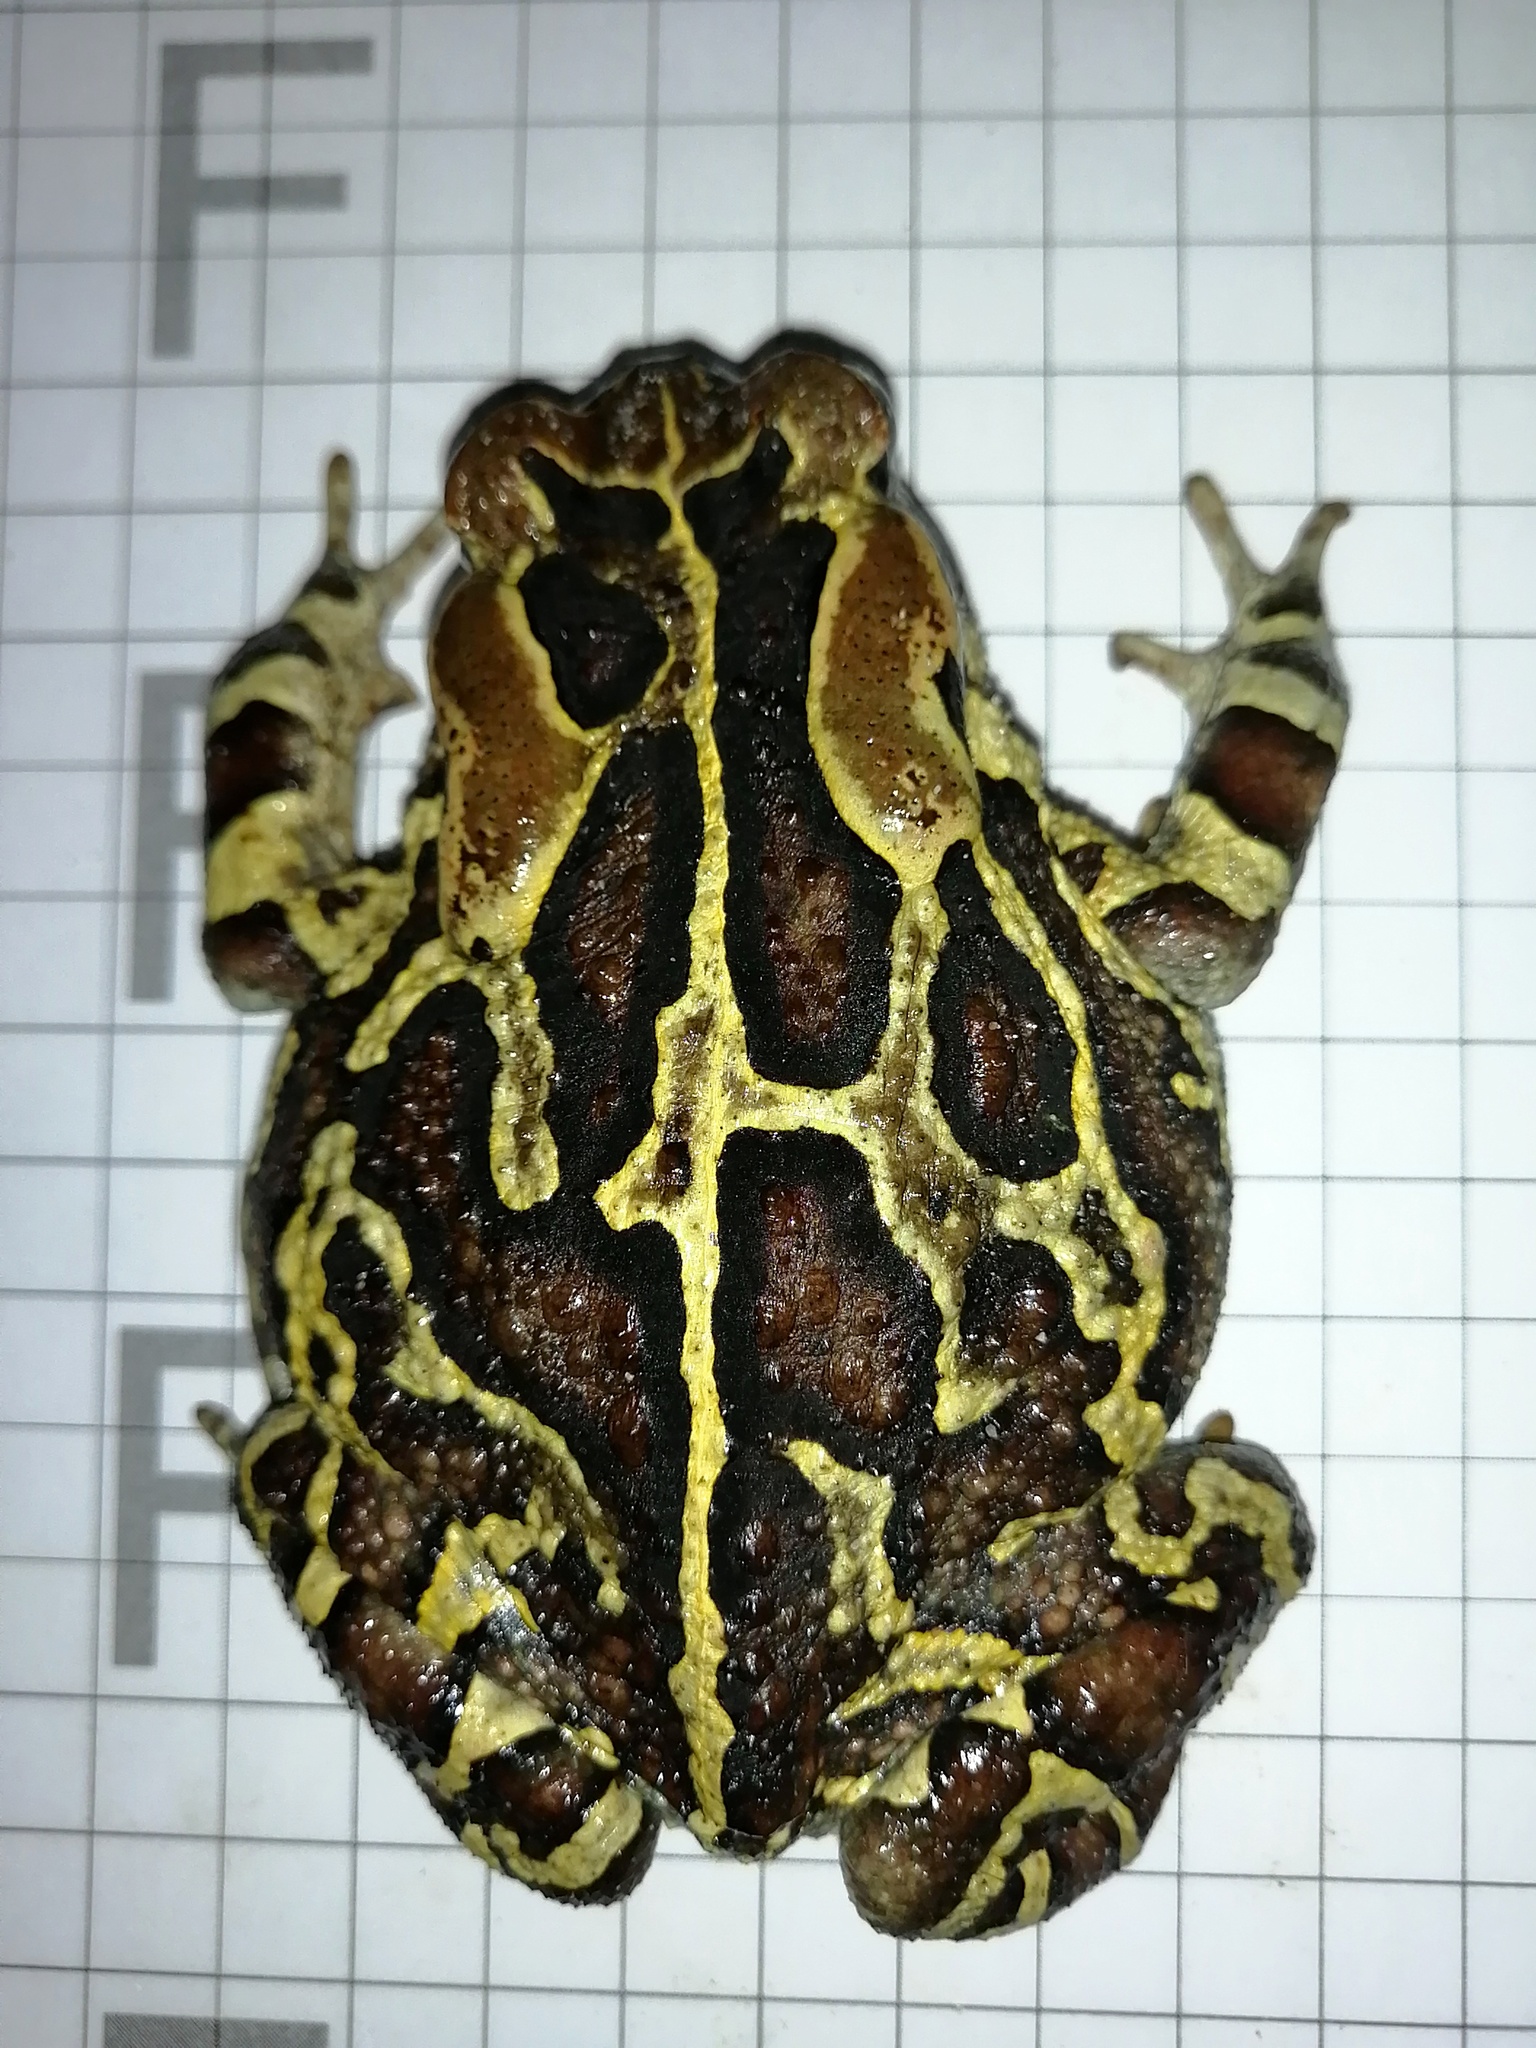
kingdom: Animalia
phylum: Chordata
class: Amphibia
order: Anura
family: Bufonidae
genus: Sclerophrys
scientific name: Sclerophrys pantherina
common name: Panther toad
